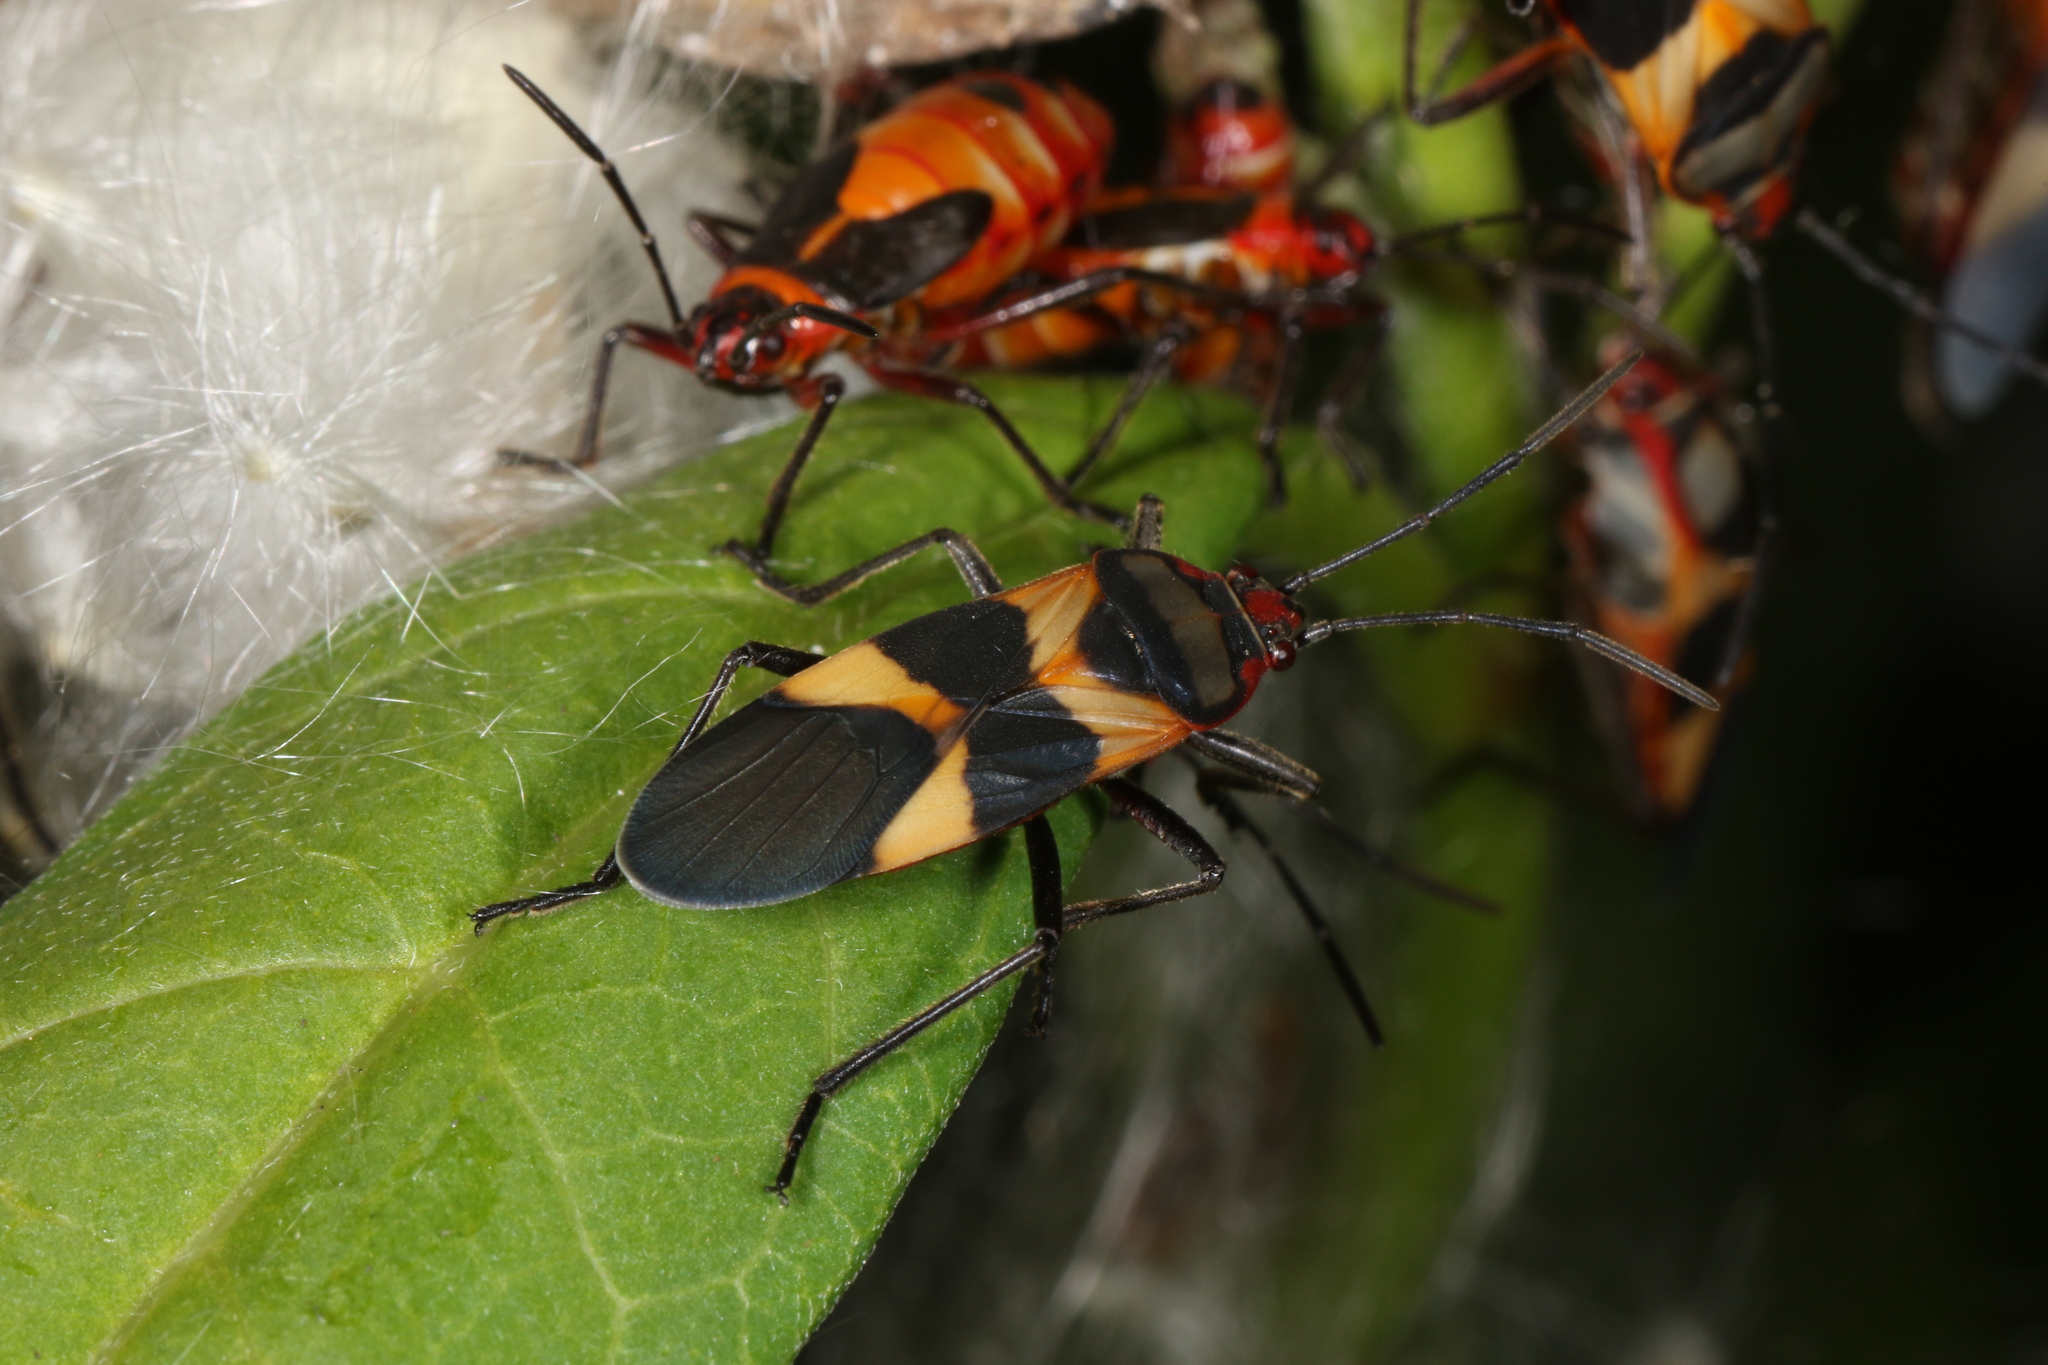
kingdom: Animalia
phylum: Arthropoda
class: Insecta
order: Hemiptera
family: Lygaeidae
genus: Oncopeltus
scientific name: Oncopeltus unifasciatellus
